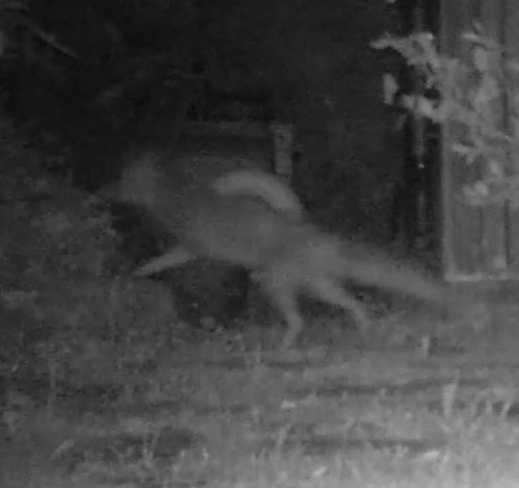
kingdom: Animalia
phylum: Chordata
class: Mammalia
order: Carnivora
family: Canidae
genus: Vulpes
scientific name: Vulpes vulpes
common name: Red fox
